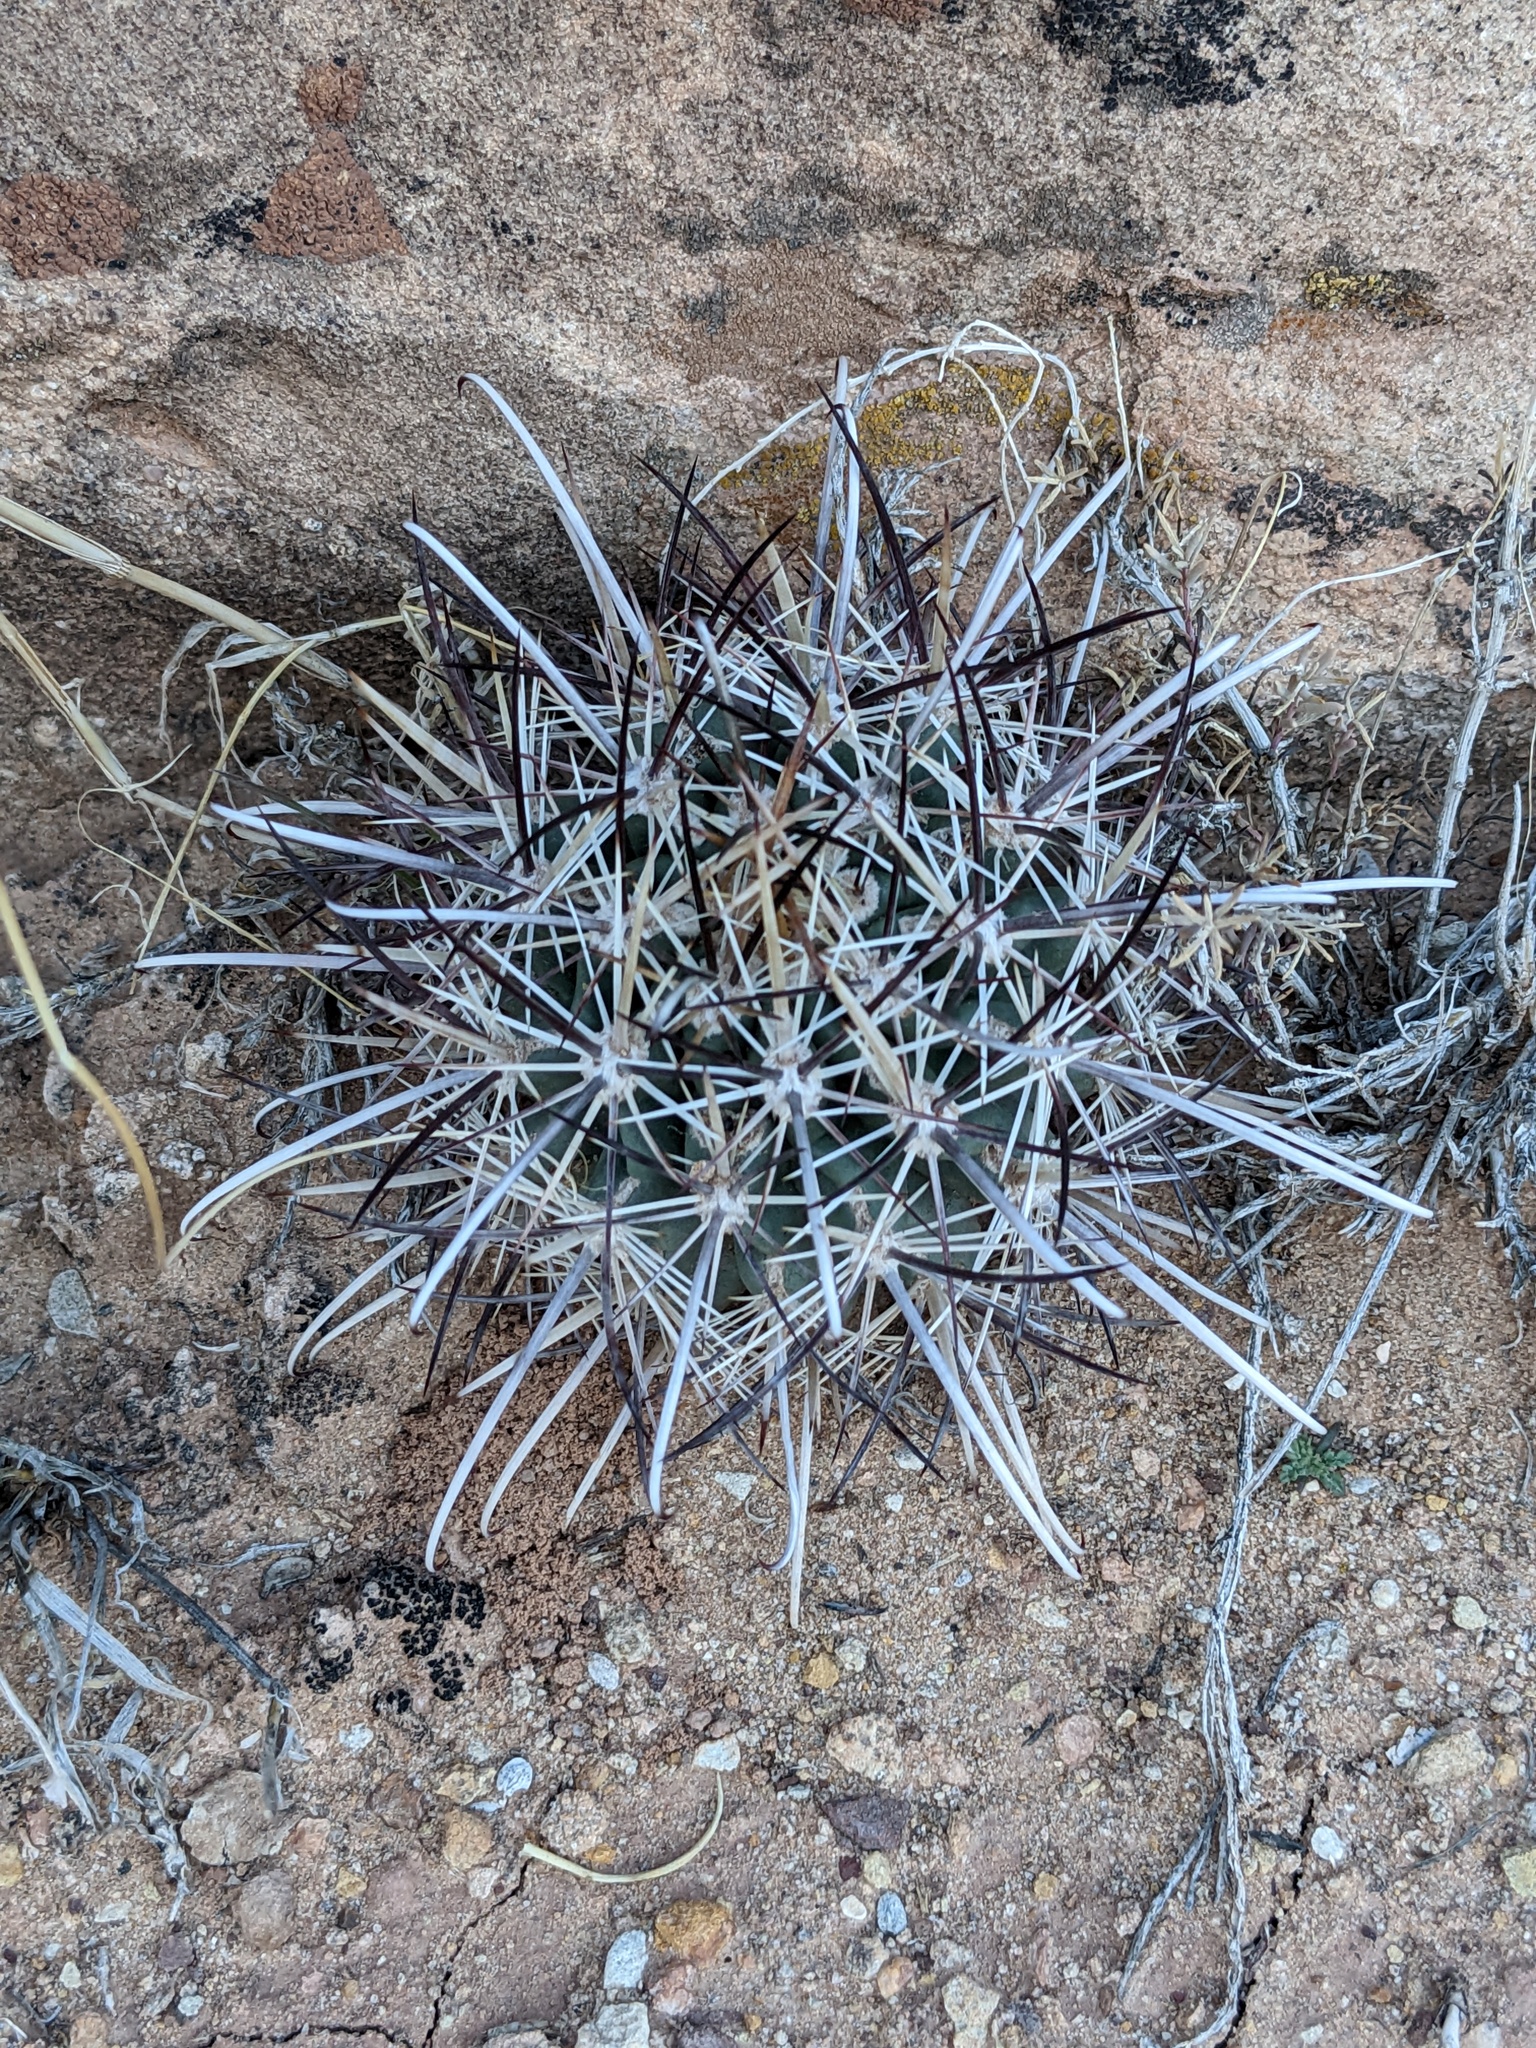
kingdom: Plantae
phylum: Tracheophyta
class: Magnoliopsida
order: Caryophyllales
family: Cactaceae
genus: Sclerocactus
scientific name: Sclerocactus parviflorus
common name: Small-flower fishhook cactus
